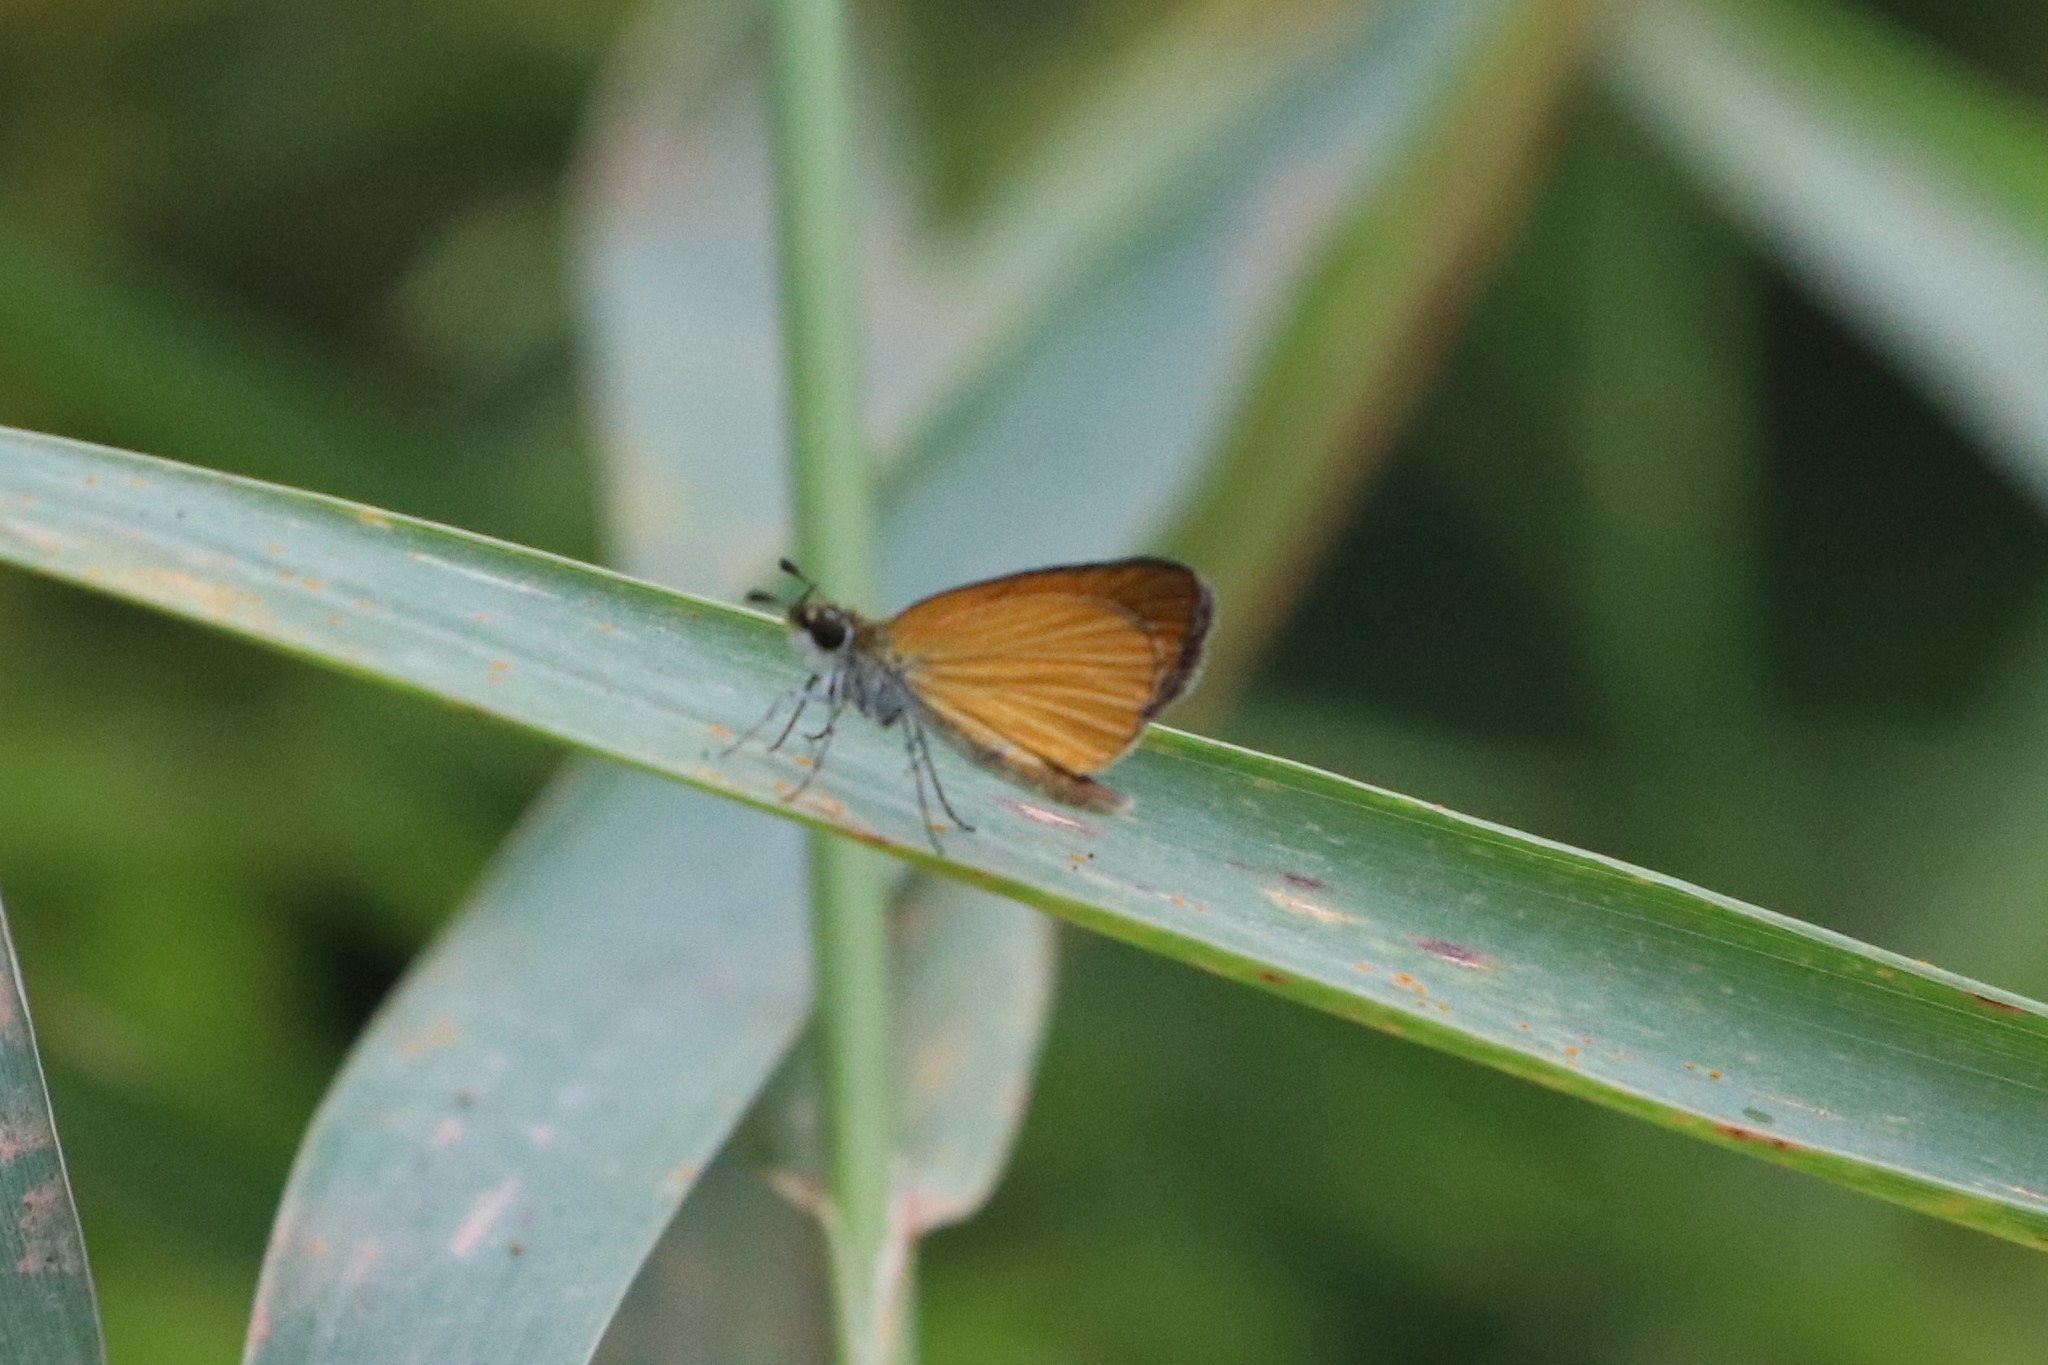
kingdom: Animalia
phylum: Arthropoda
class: Insecta
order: Lepidoptera
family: Hesperiidae
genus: Ancyloxypha
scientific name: Ancyloxypha numitor
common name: Least skipper
